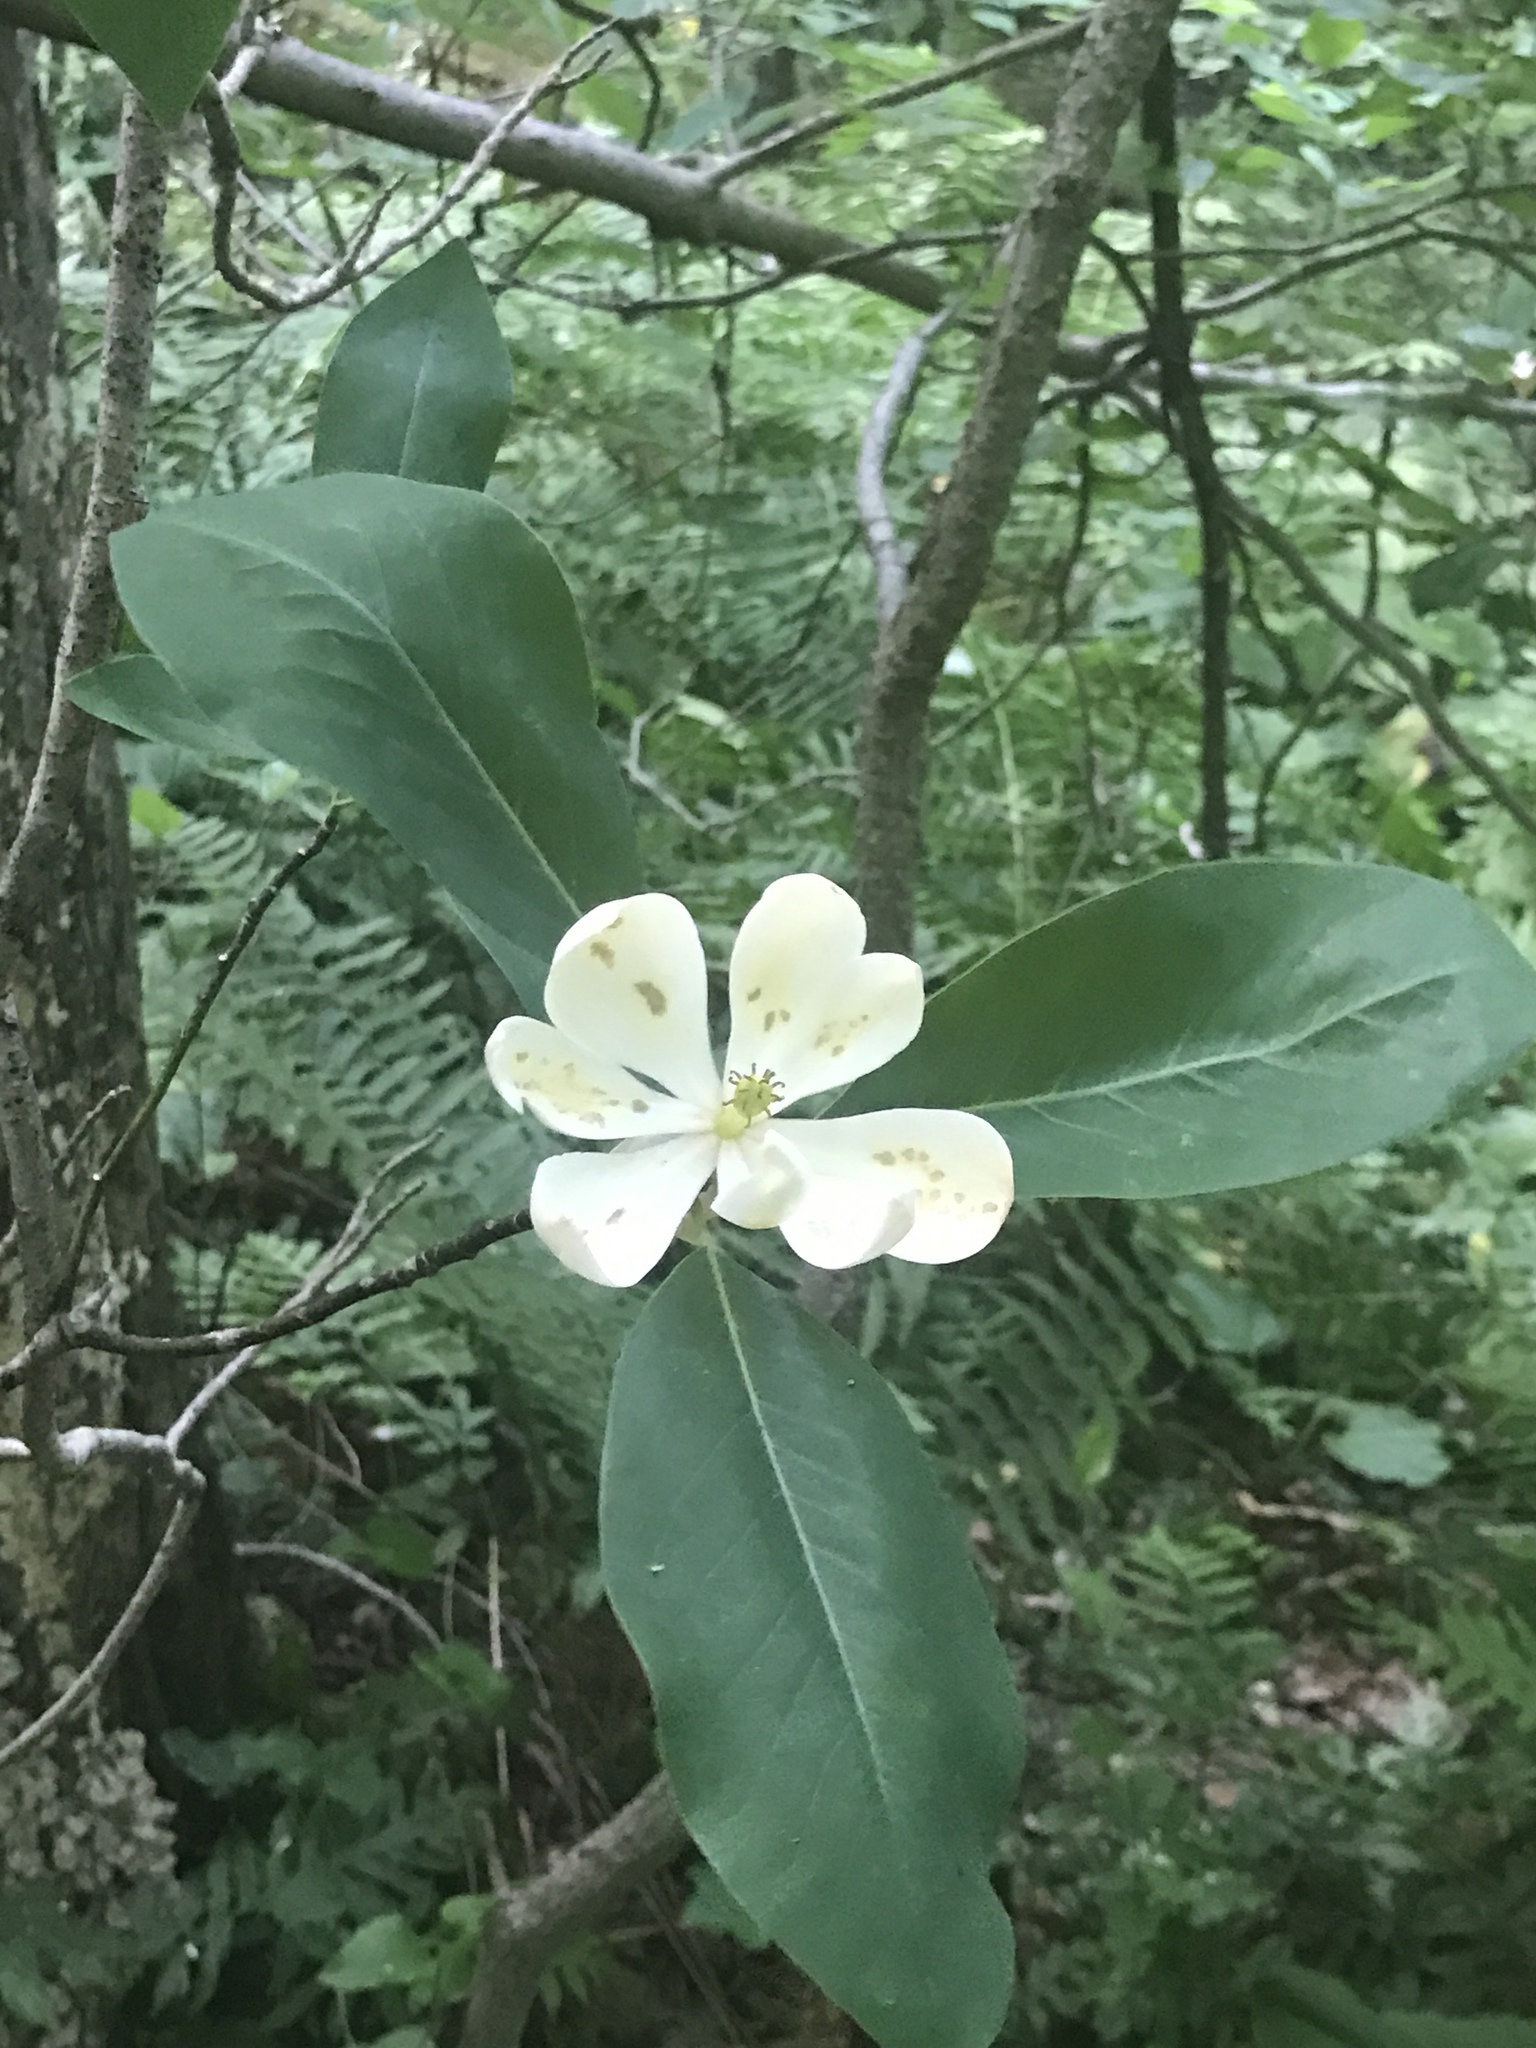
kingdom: Plantae
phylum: Tracheophyta
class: Magnoliopsida
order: Magnoliales
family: Magnoliaceae
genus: Magnolia
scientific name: Magnolia virginiana
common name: Swamp bay
